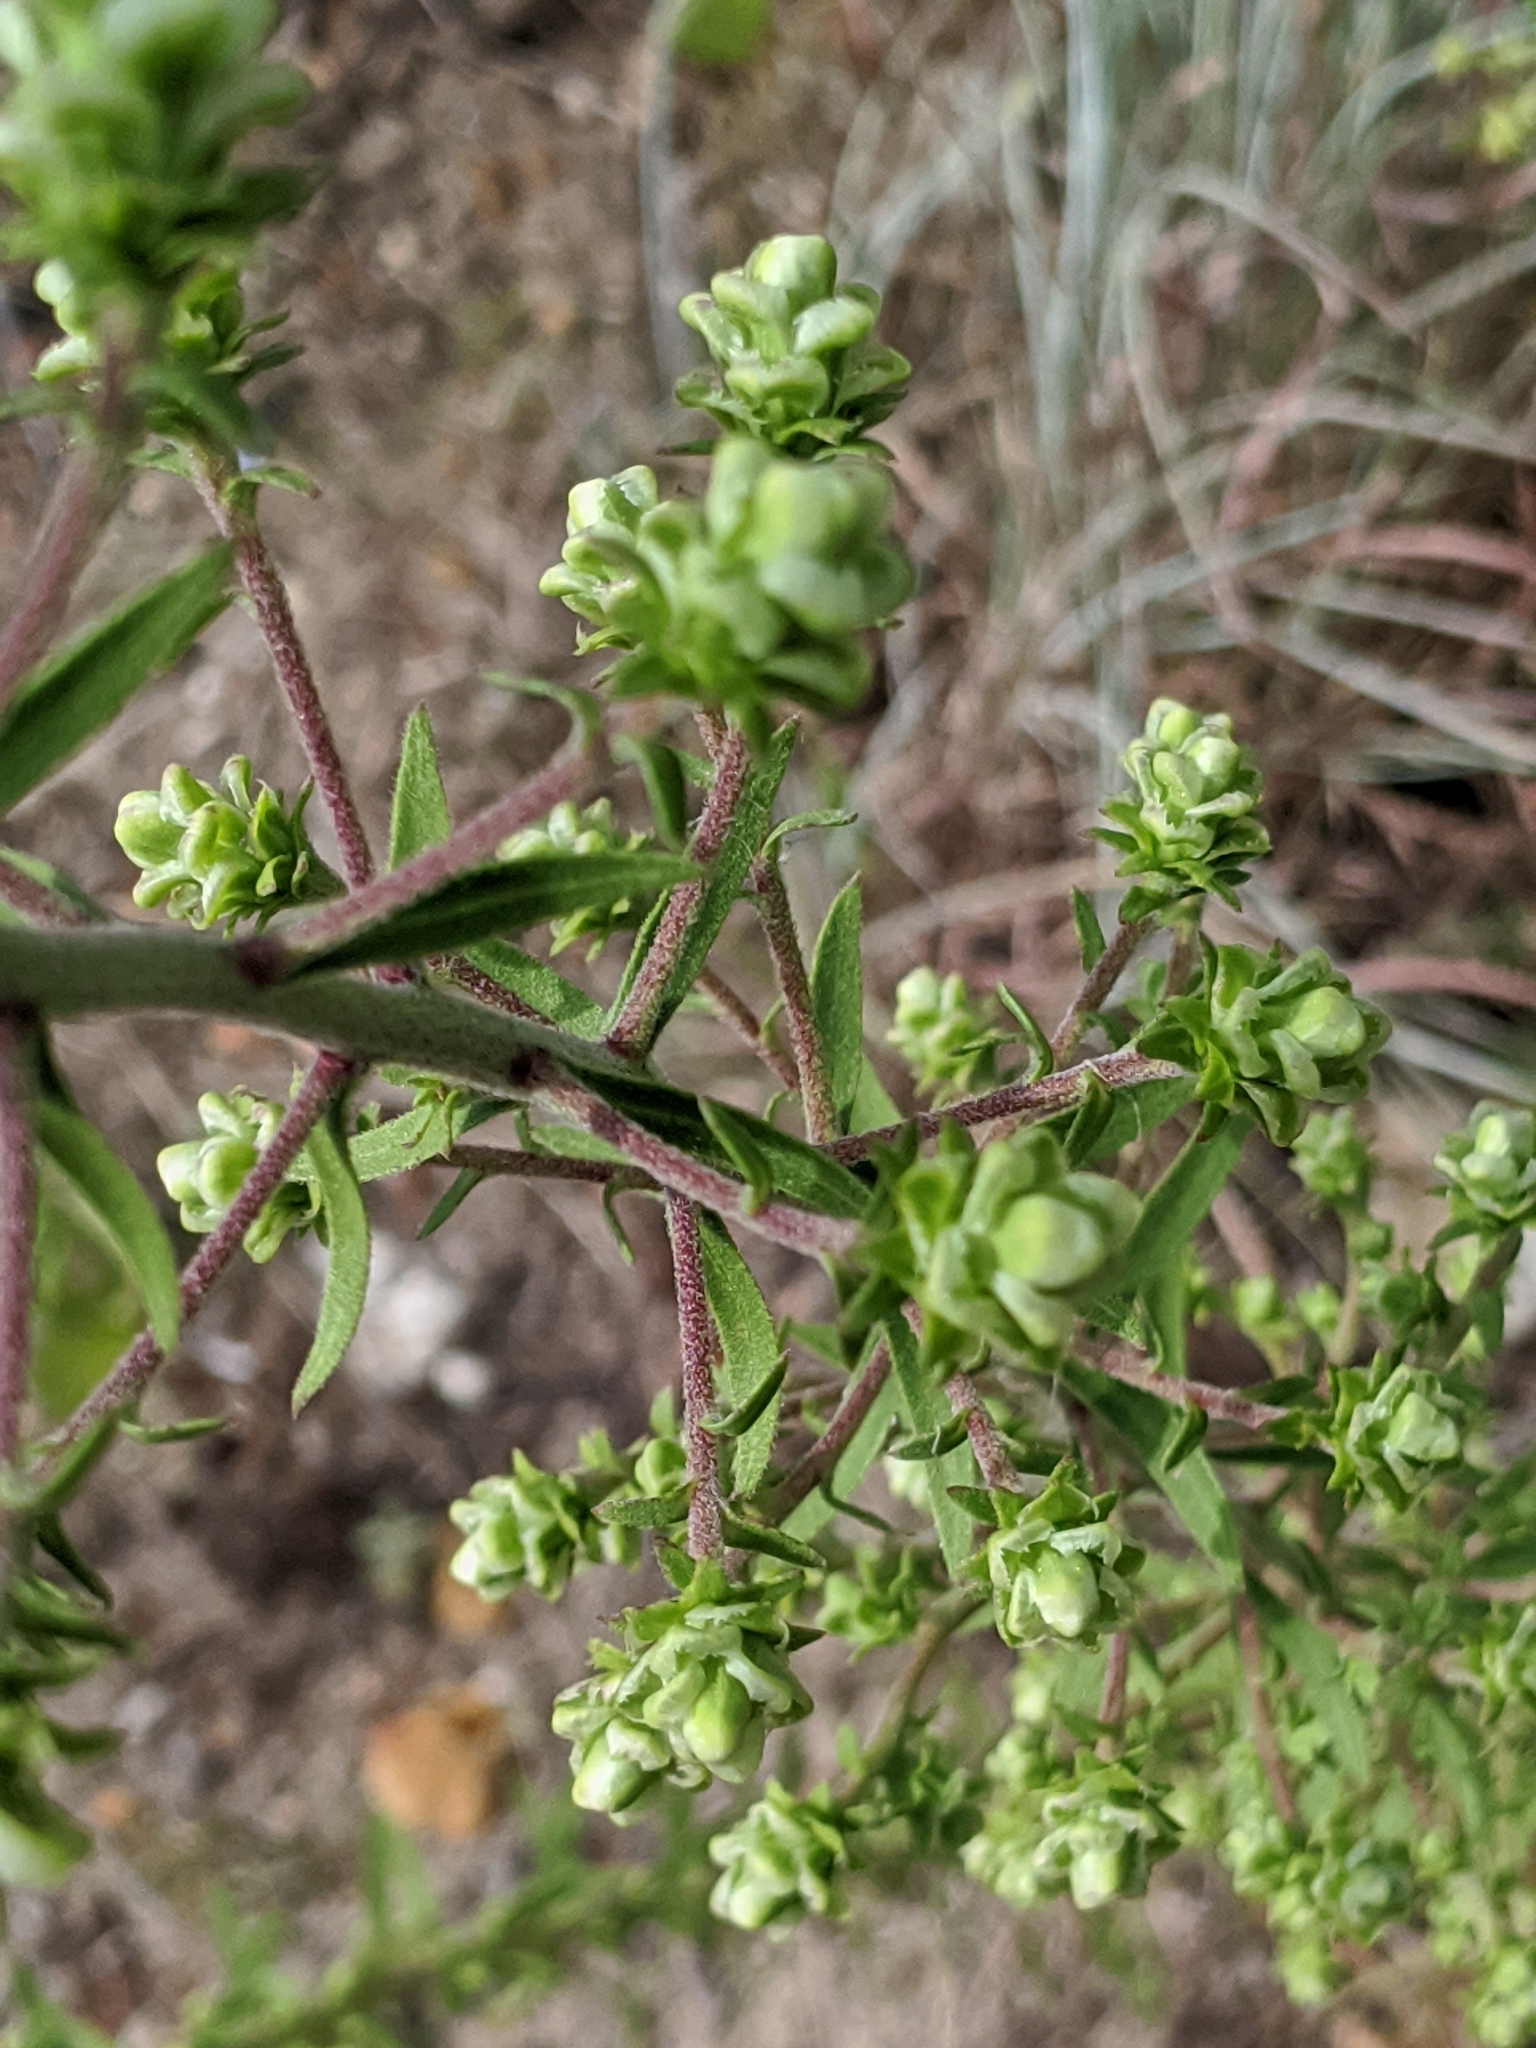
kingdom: Plantae
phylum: Tracheophyta
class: Magnoliopsida
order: Asterales
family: Asteraceae
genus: Liatris
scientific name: Liatris aspera
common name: Lacerate blazing-star
